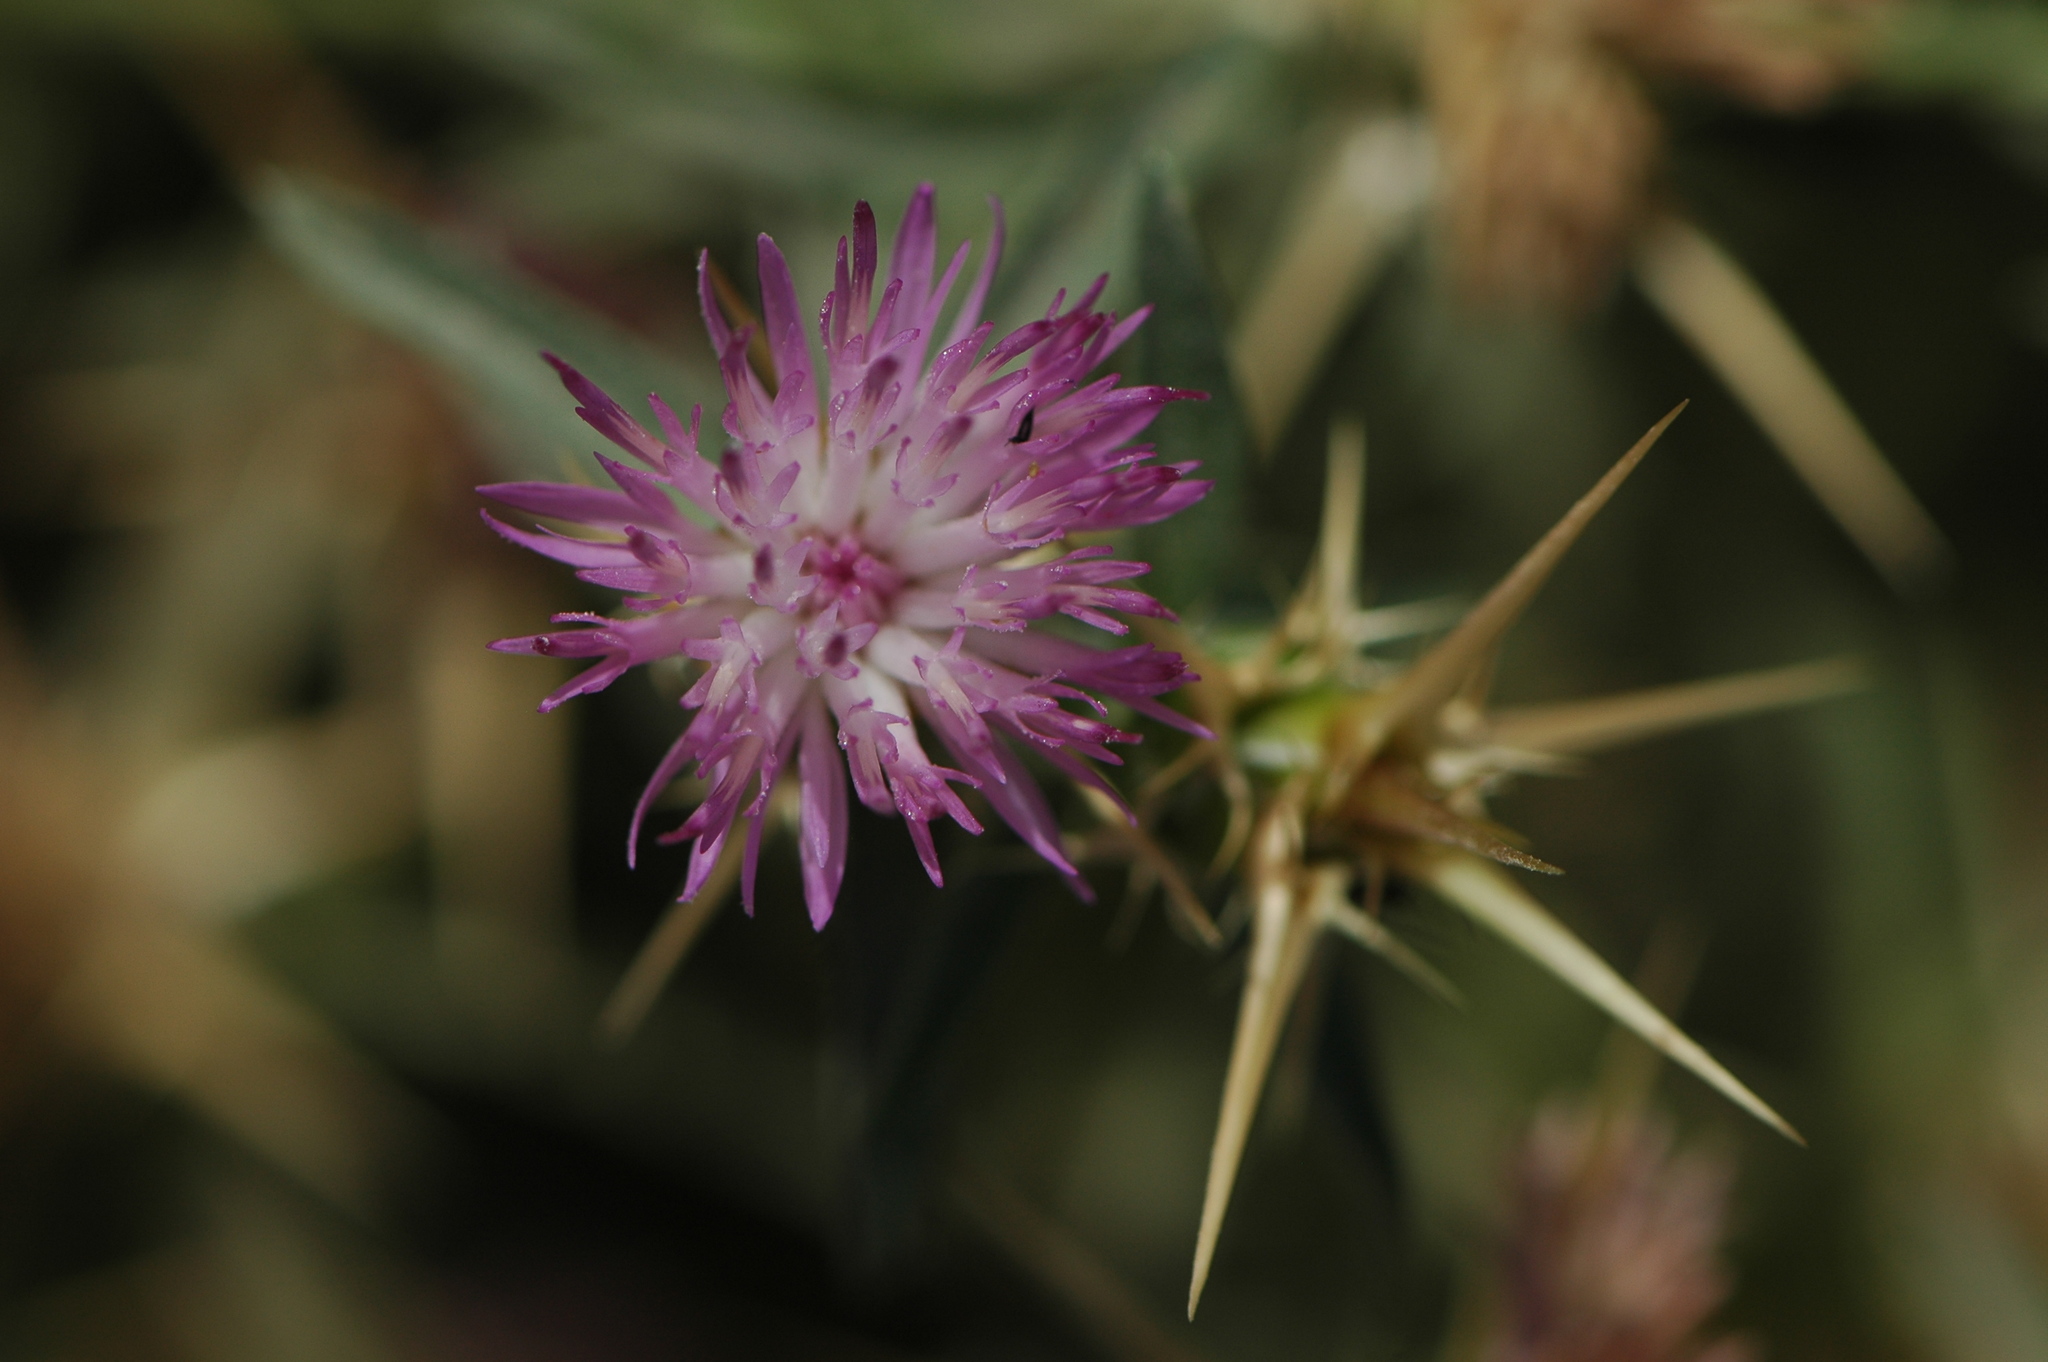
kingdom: Plantae
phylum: Tracheophyta
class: Magnoliopsida
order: Asterales
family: Asteraceae
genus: Centaurea
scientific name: Centaurea calcitrapa
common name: Red star-thistle
